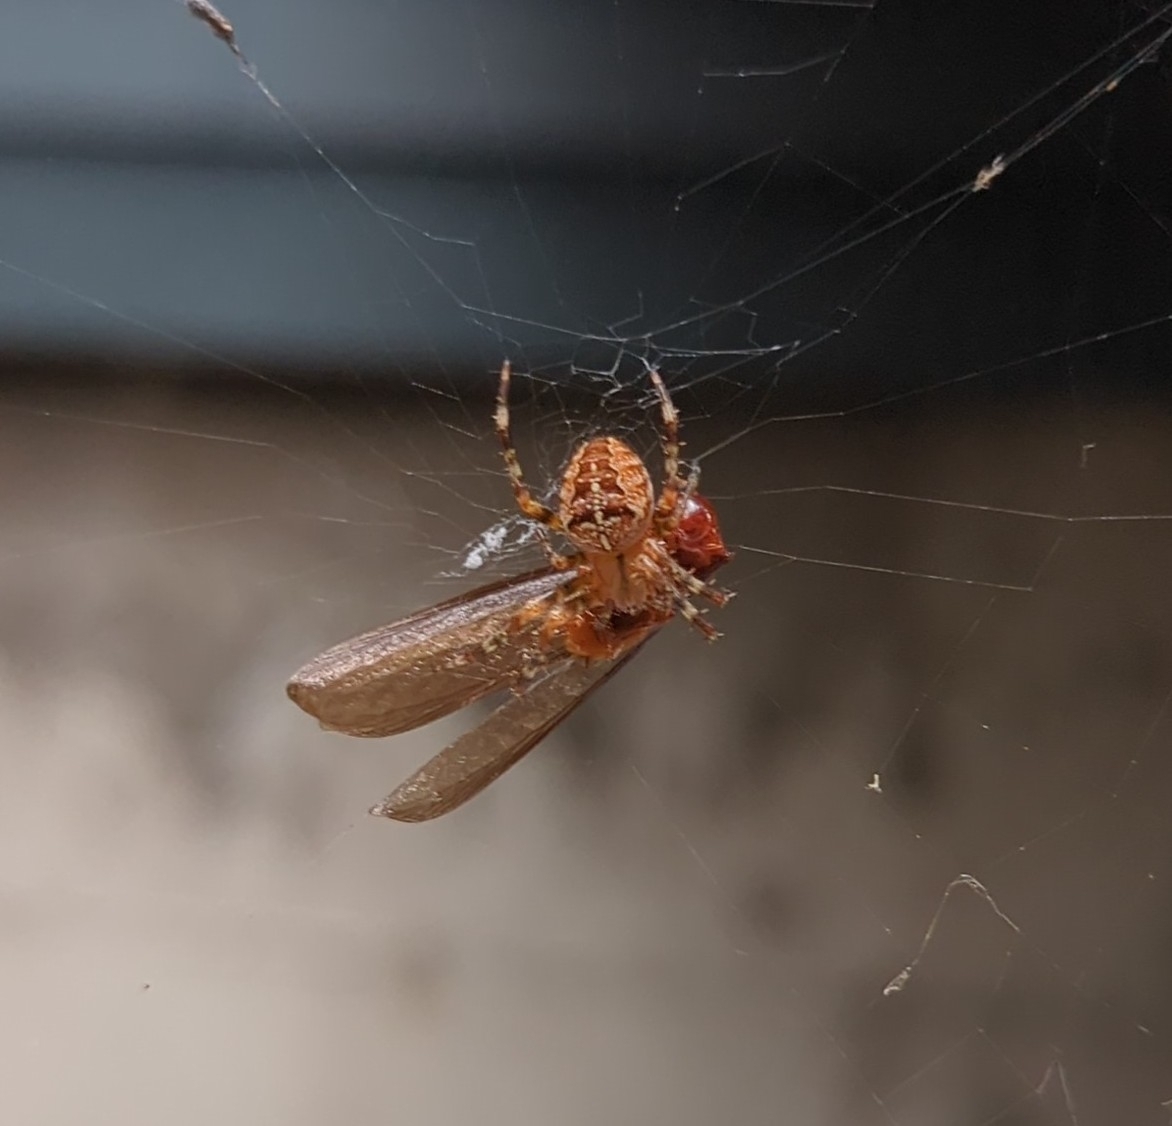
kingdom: Animalia
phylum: Arthropoda
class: Arachnida
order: Araneae
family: Araneidae
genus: Araneus
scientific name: Araneus diadematus
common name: Cross orbweaver
